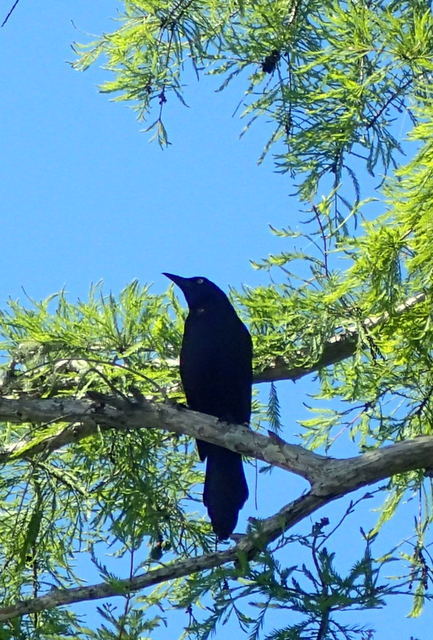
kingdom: Animalia
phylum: Chordata
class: Aves
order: Passeriformes
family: Icteridae
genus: Quiscalus
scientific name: Quiscalus quiscula
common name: Common grackle
